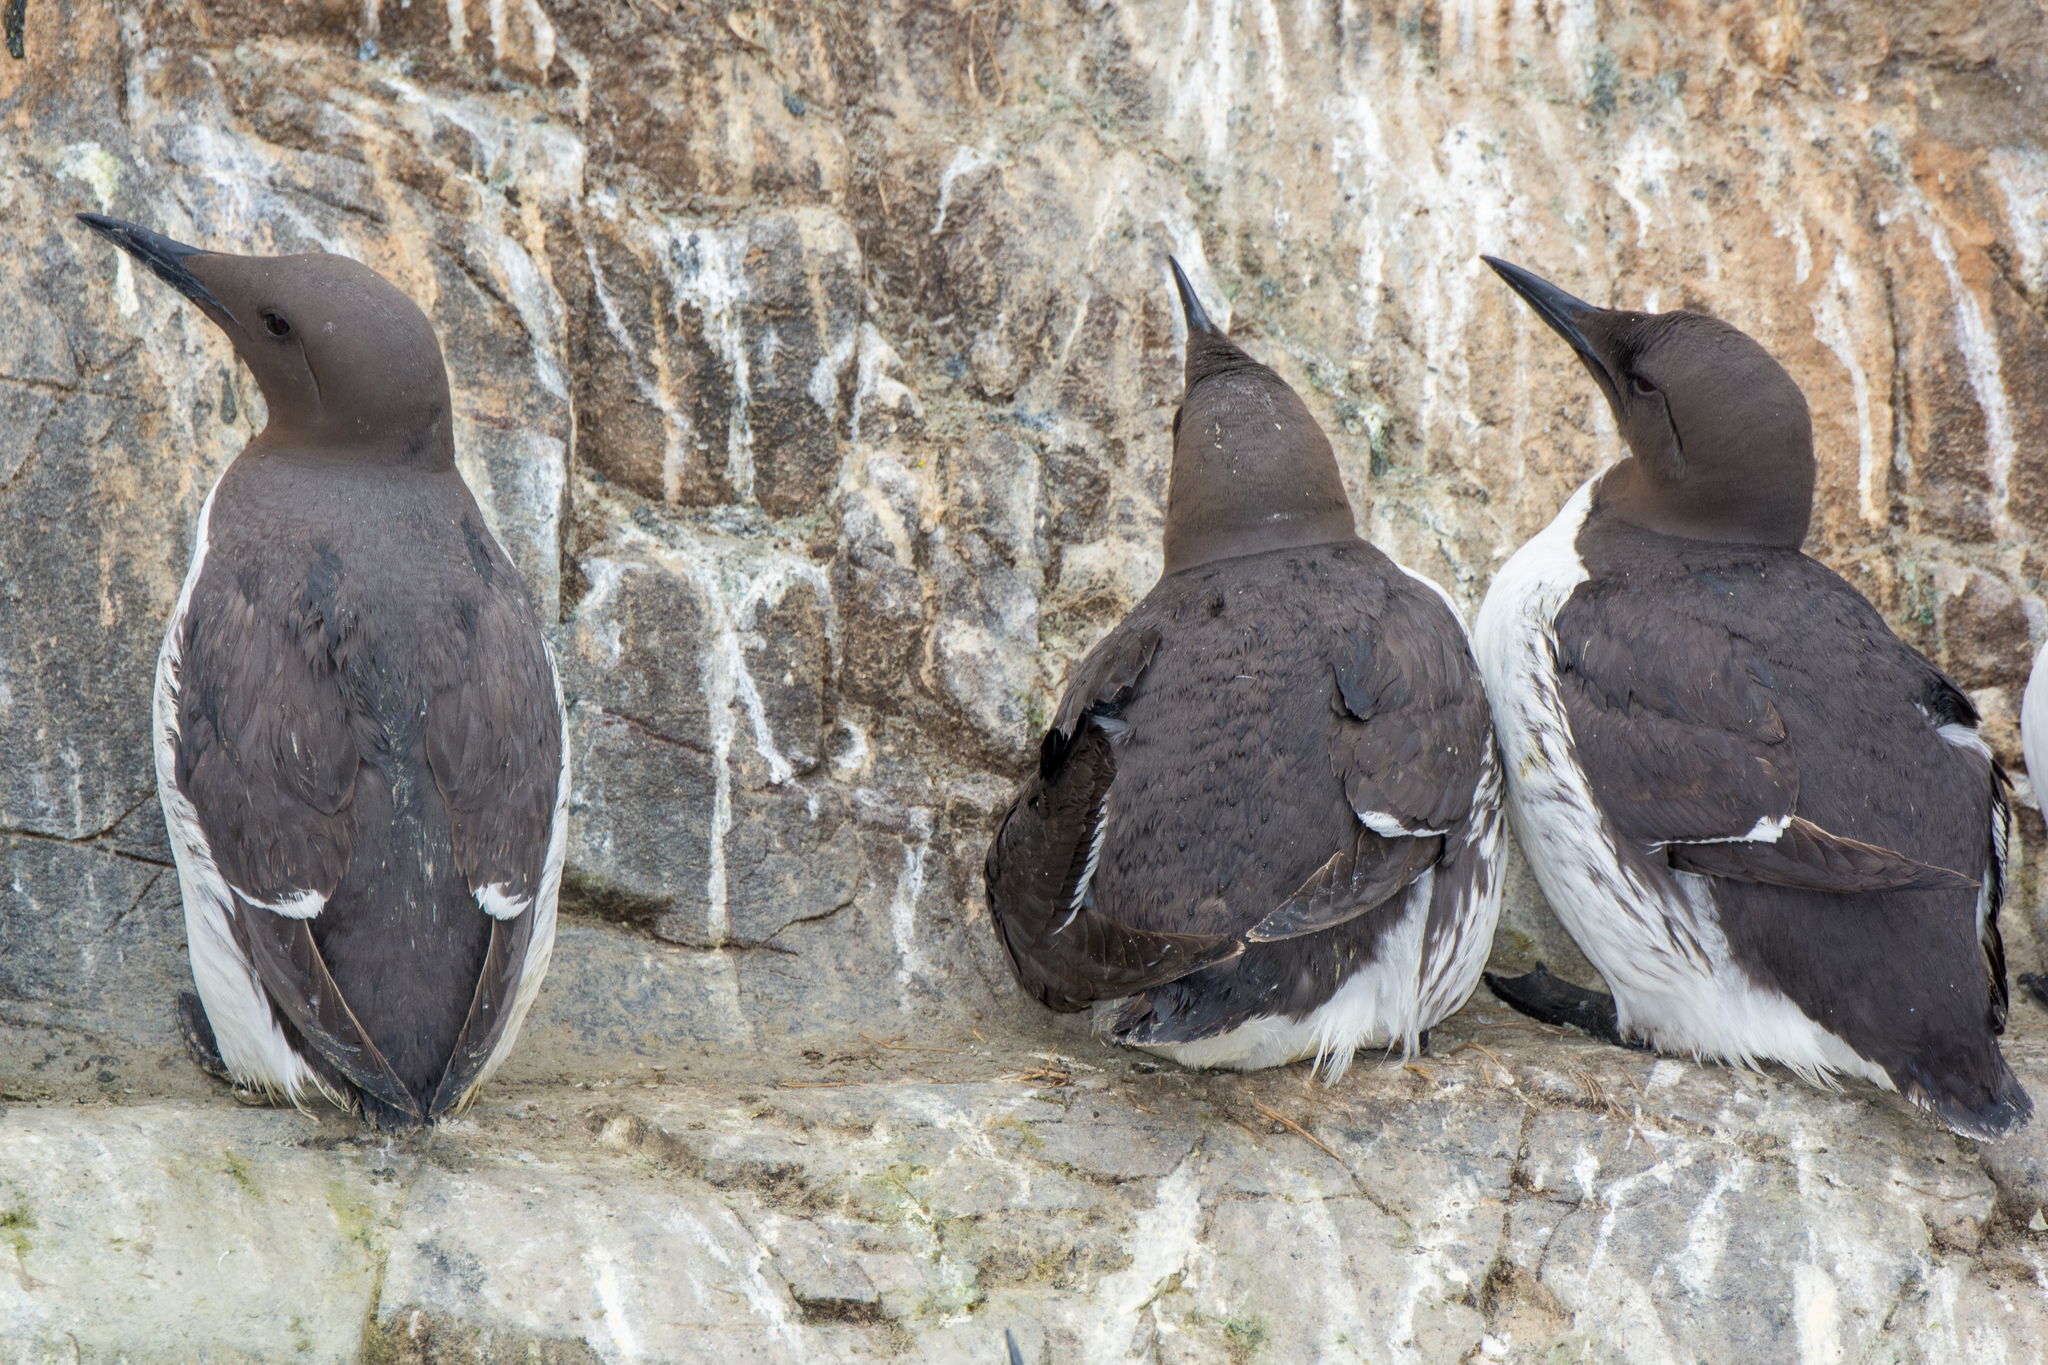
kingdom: Animalia
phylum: Chordata
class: Aves
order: Charadriiformes
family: Alcidae
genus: Uria
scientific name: Uria aalge
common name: Common murre
